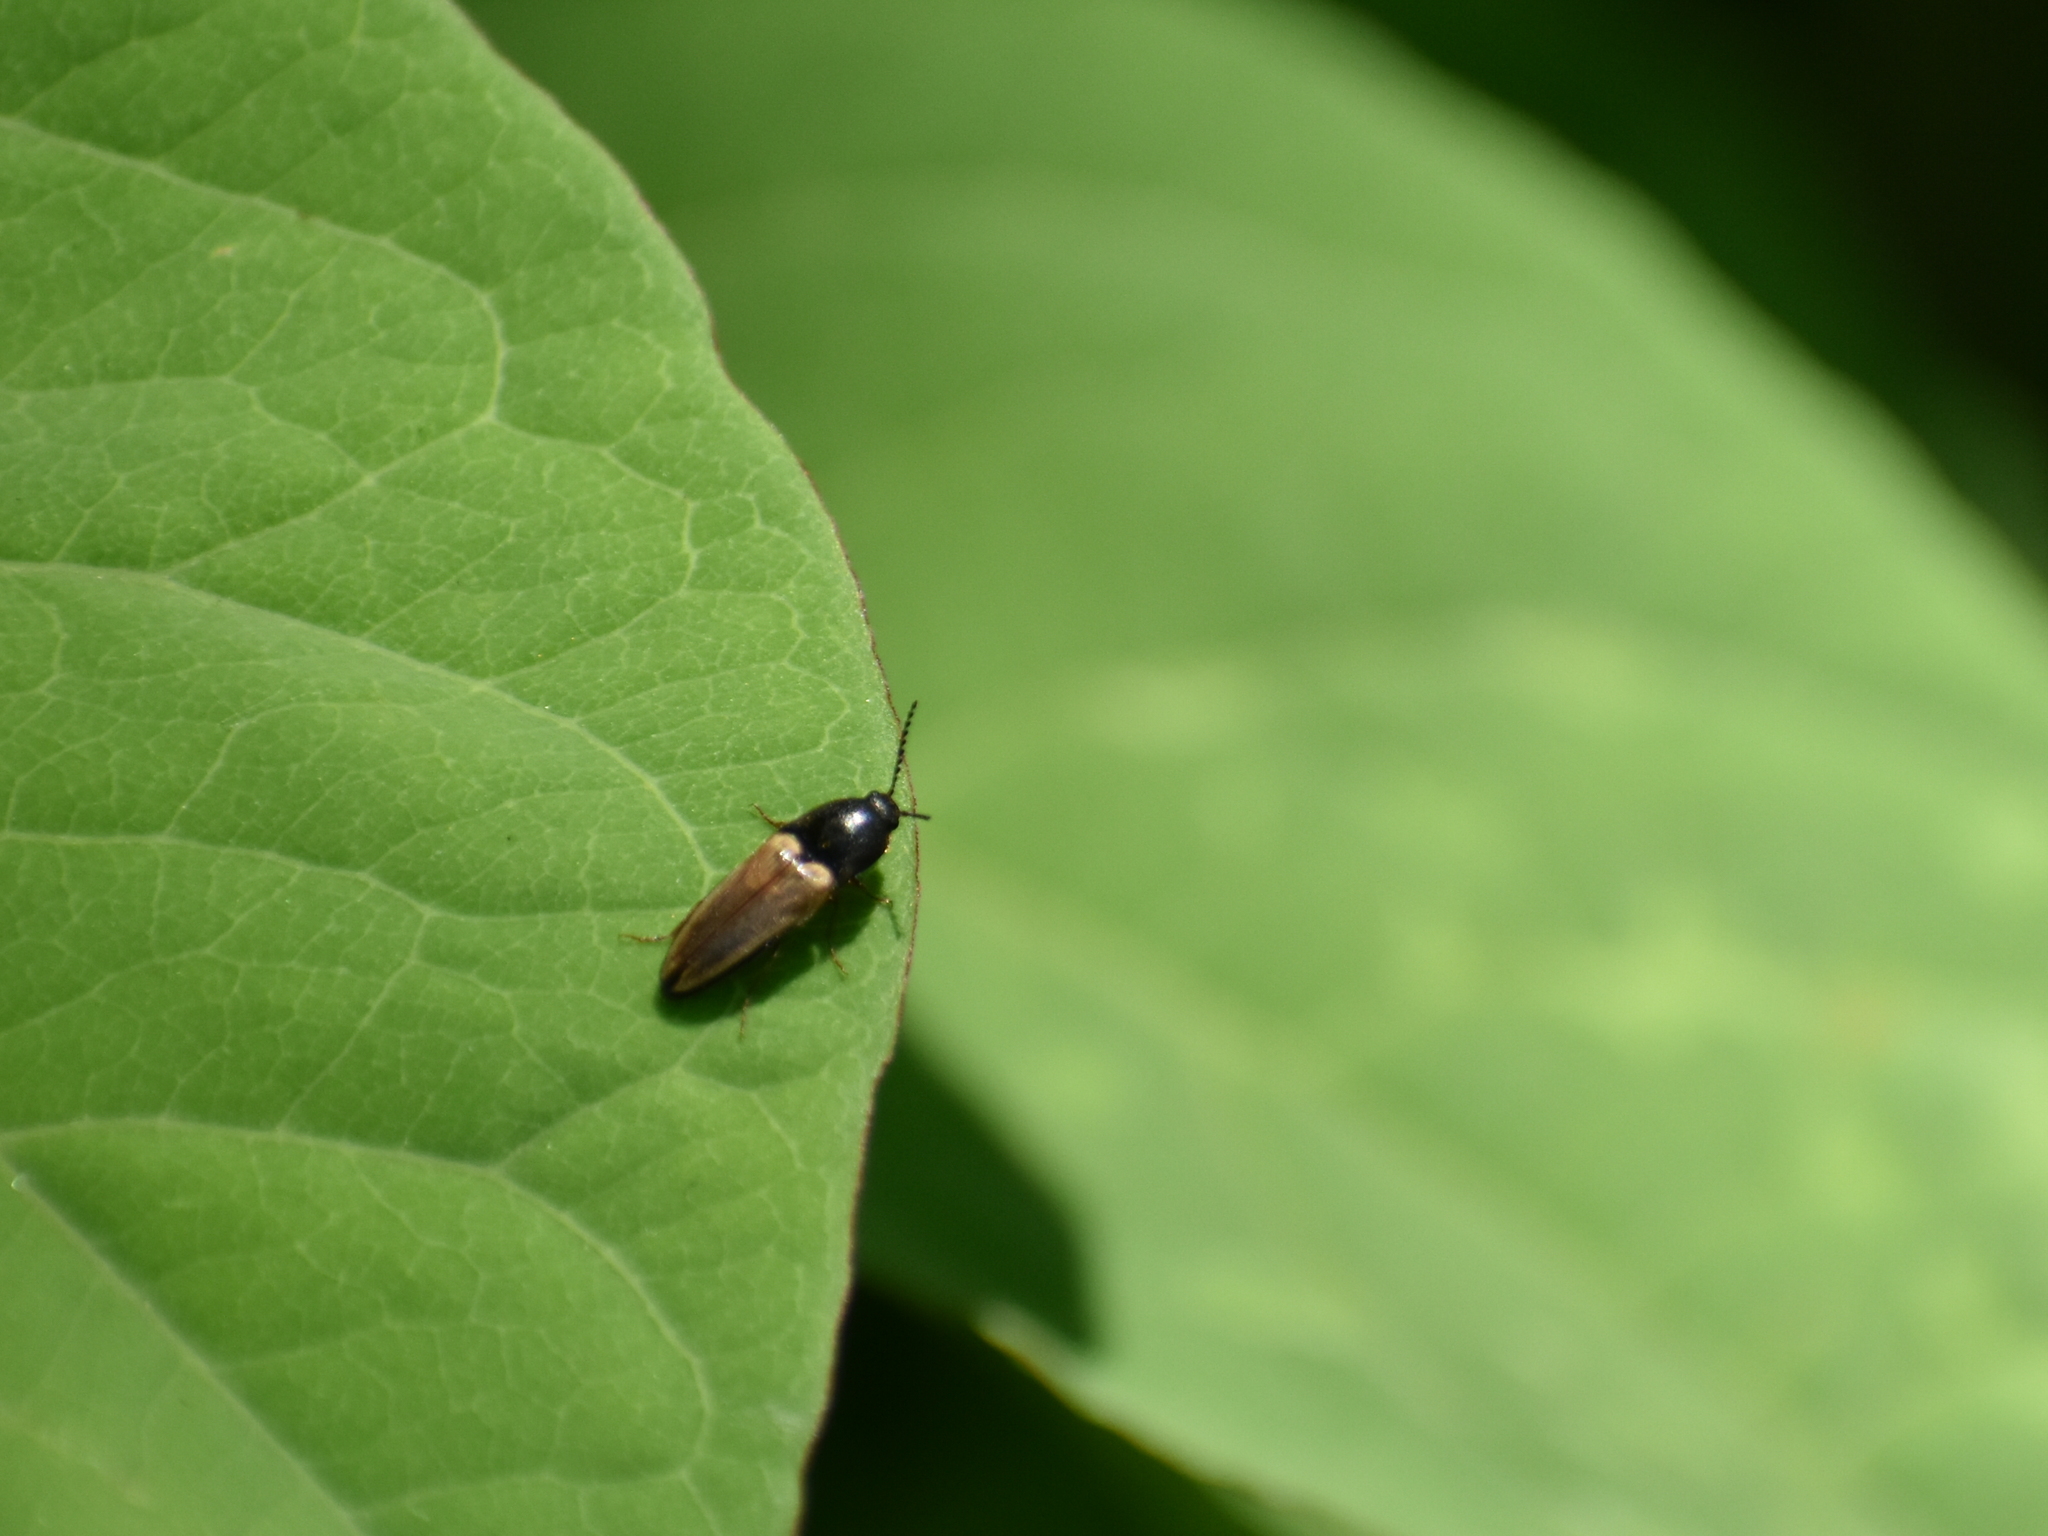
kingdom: Animalia
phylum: Arthropoda
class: Insecta
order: Coleoptera
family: Elateridae
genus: Ampedus
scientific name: Ampedus nigricollis
